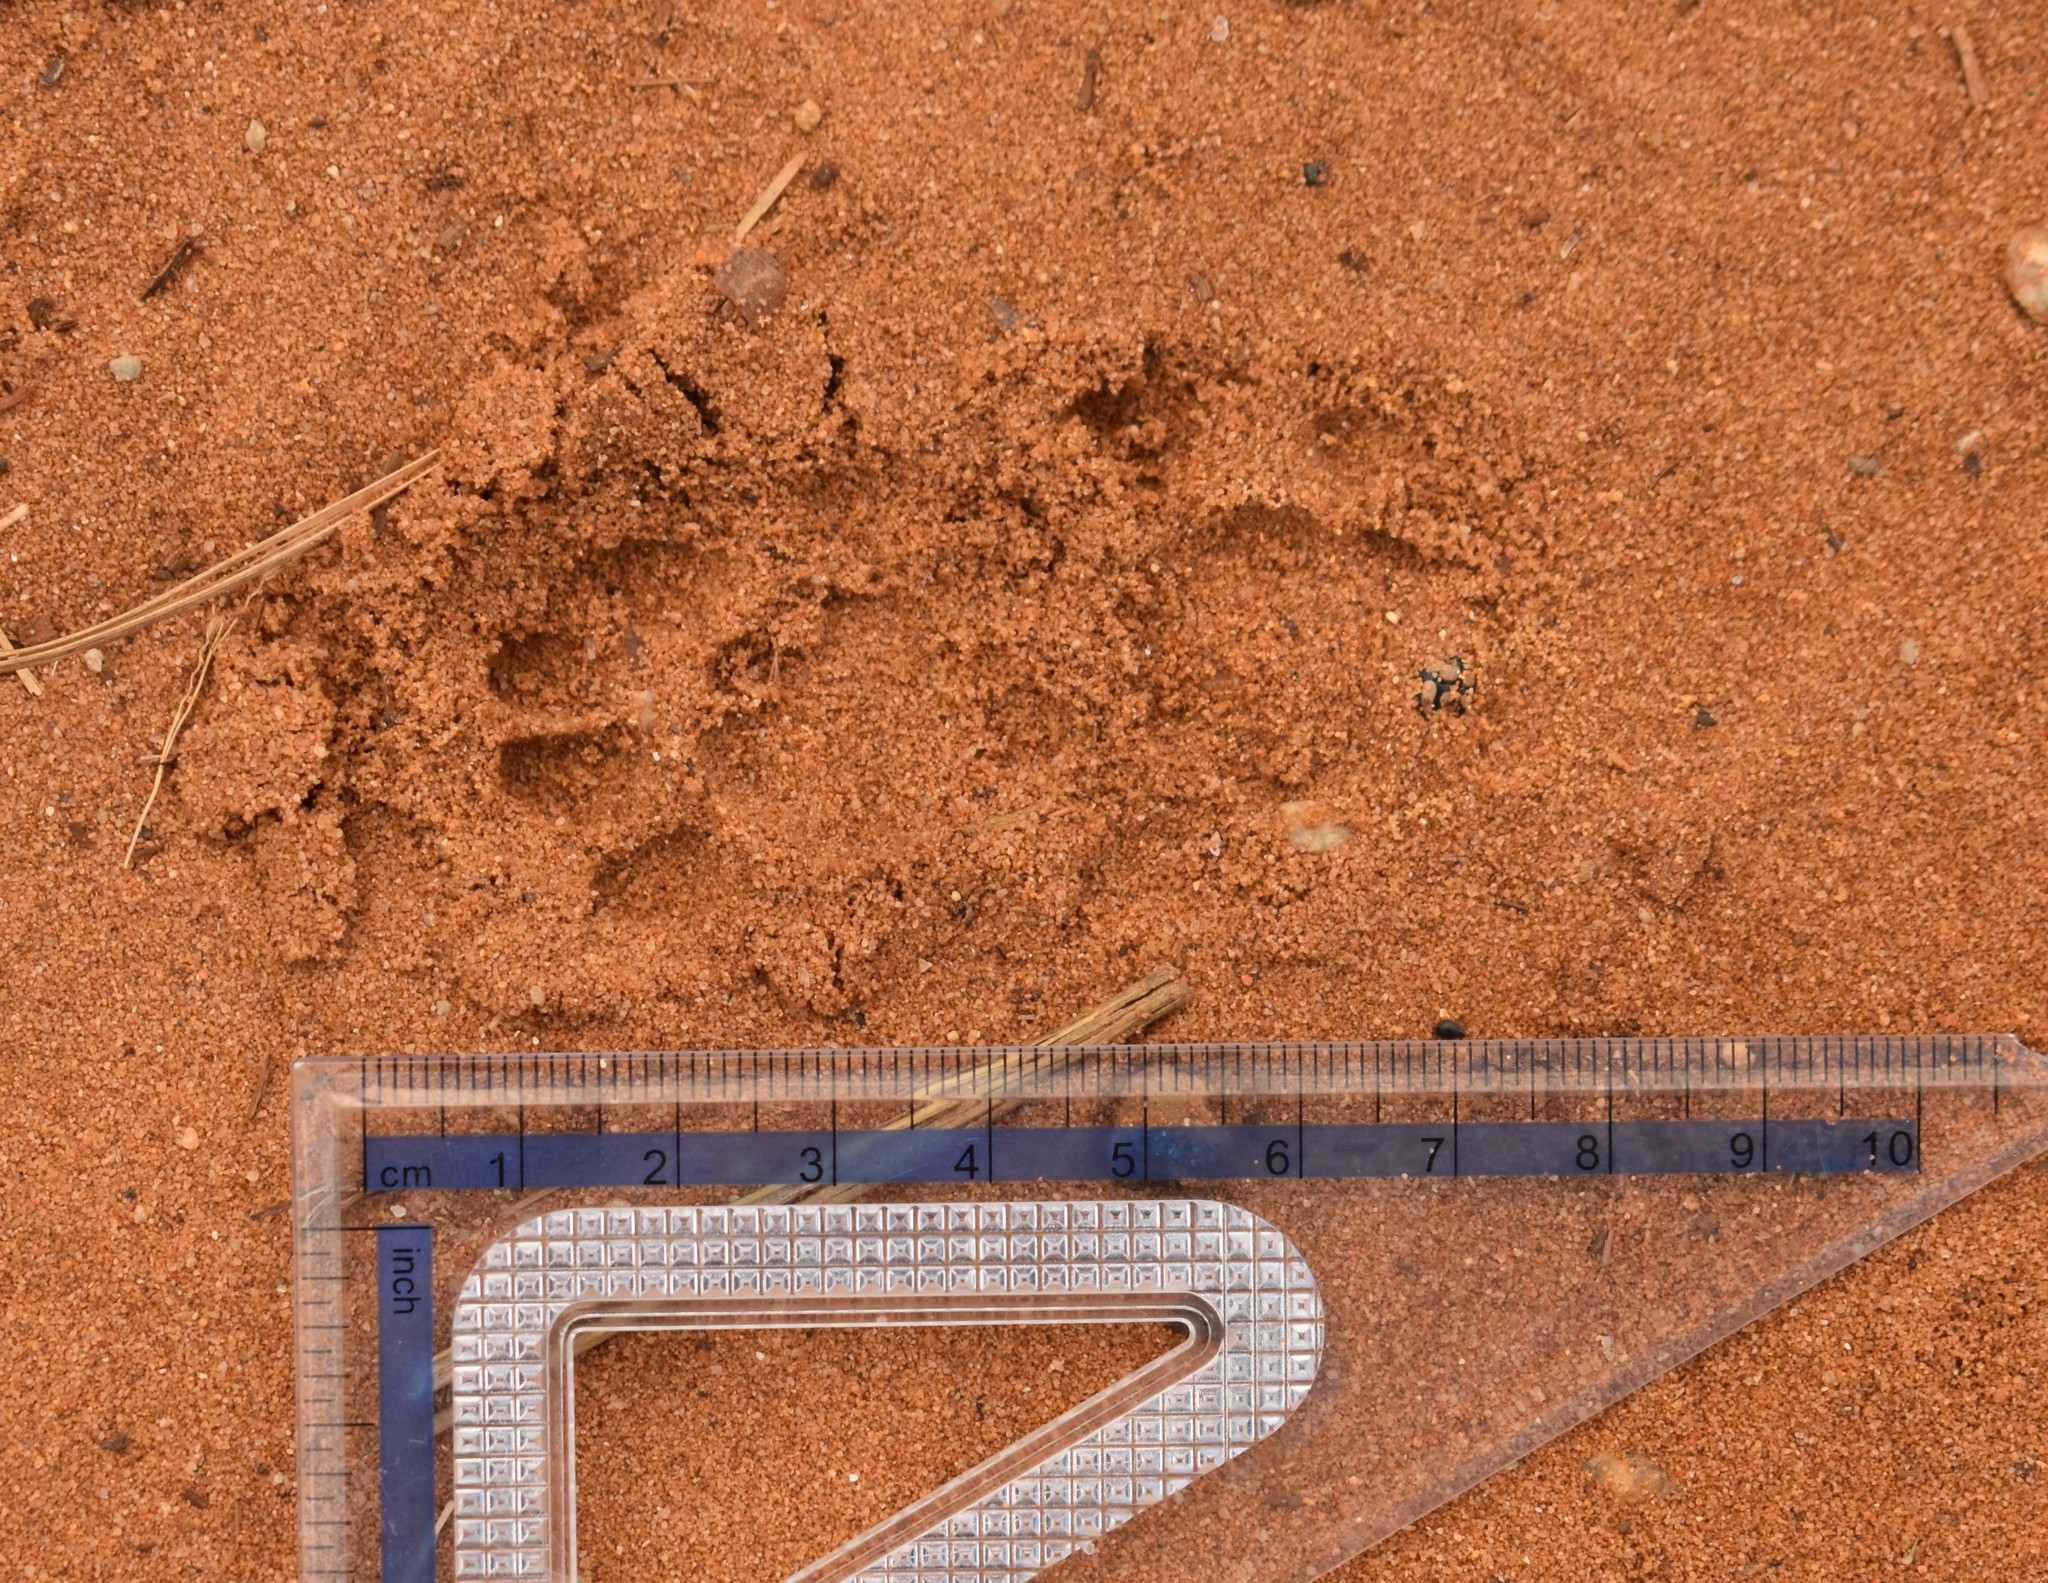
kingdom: Animalia
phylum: Chordata
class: Mammalia
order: Carnivora
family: Viverridae
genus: Genetta
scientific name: Genetta tigrina
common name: Cape genet
